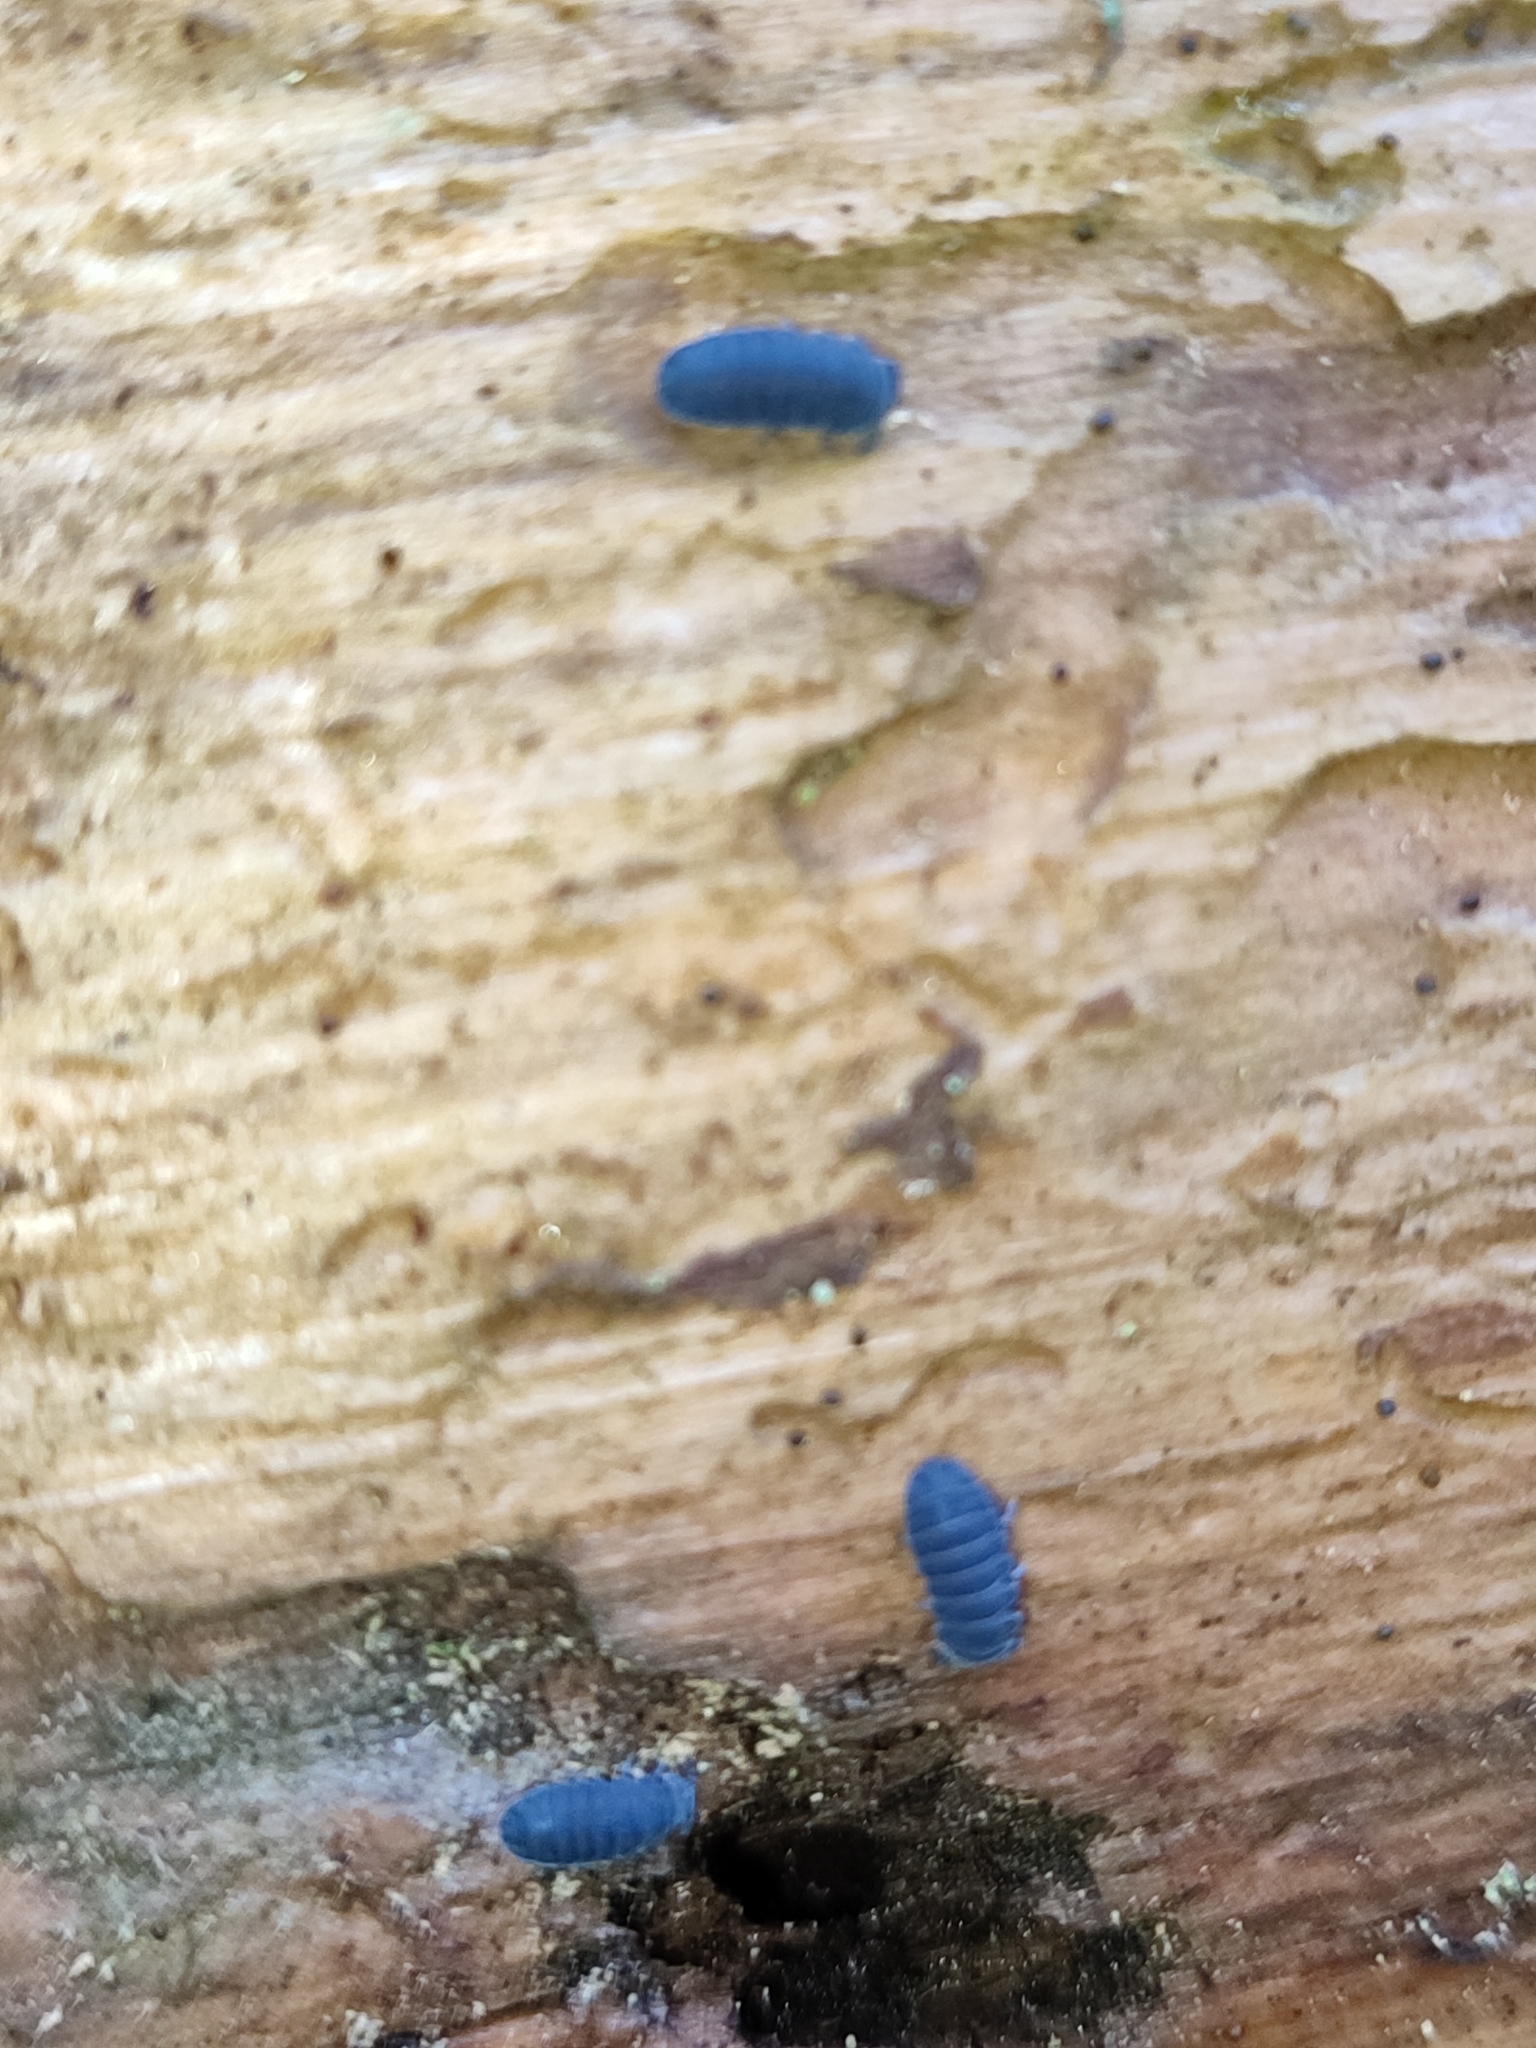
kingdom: Animalia
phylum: Arthropoda
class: Collembola
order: Poduromorpha
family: Onychiuridae
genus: Tetrodontophora
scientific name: Tetrodontophora bielanensis
